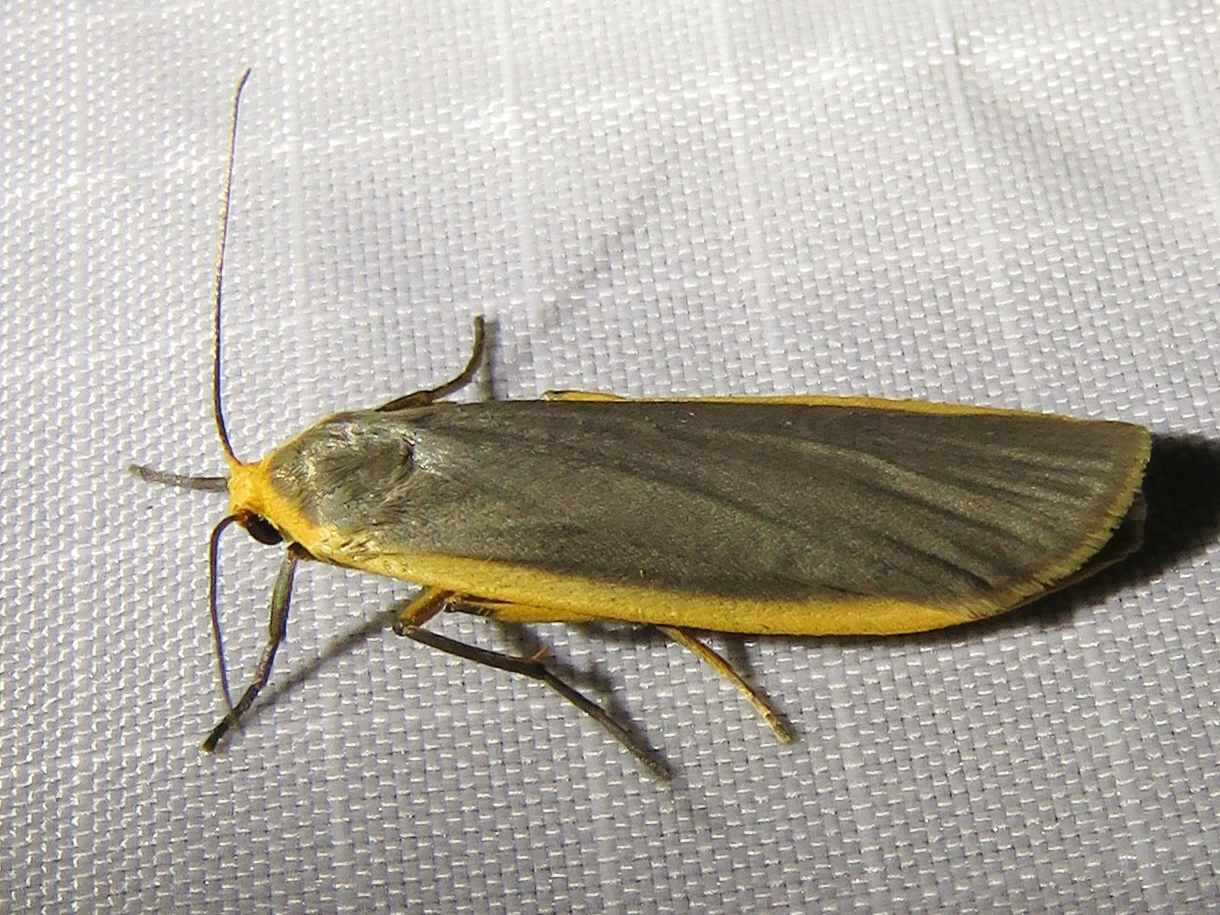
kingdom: Animalia
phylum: Arthropoda
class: Insecta
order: Lepidoptera
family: Erebidae
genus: Nyea
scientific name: Nyea lurideola
